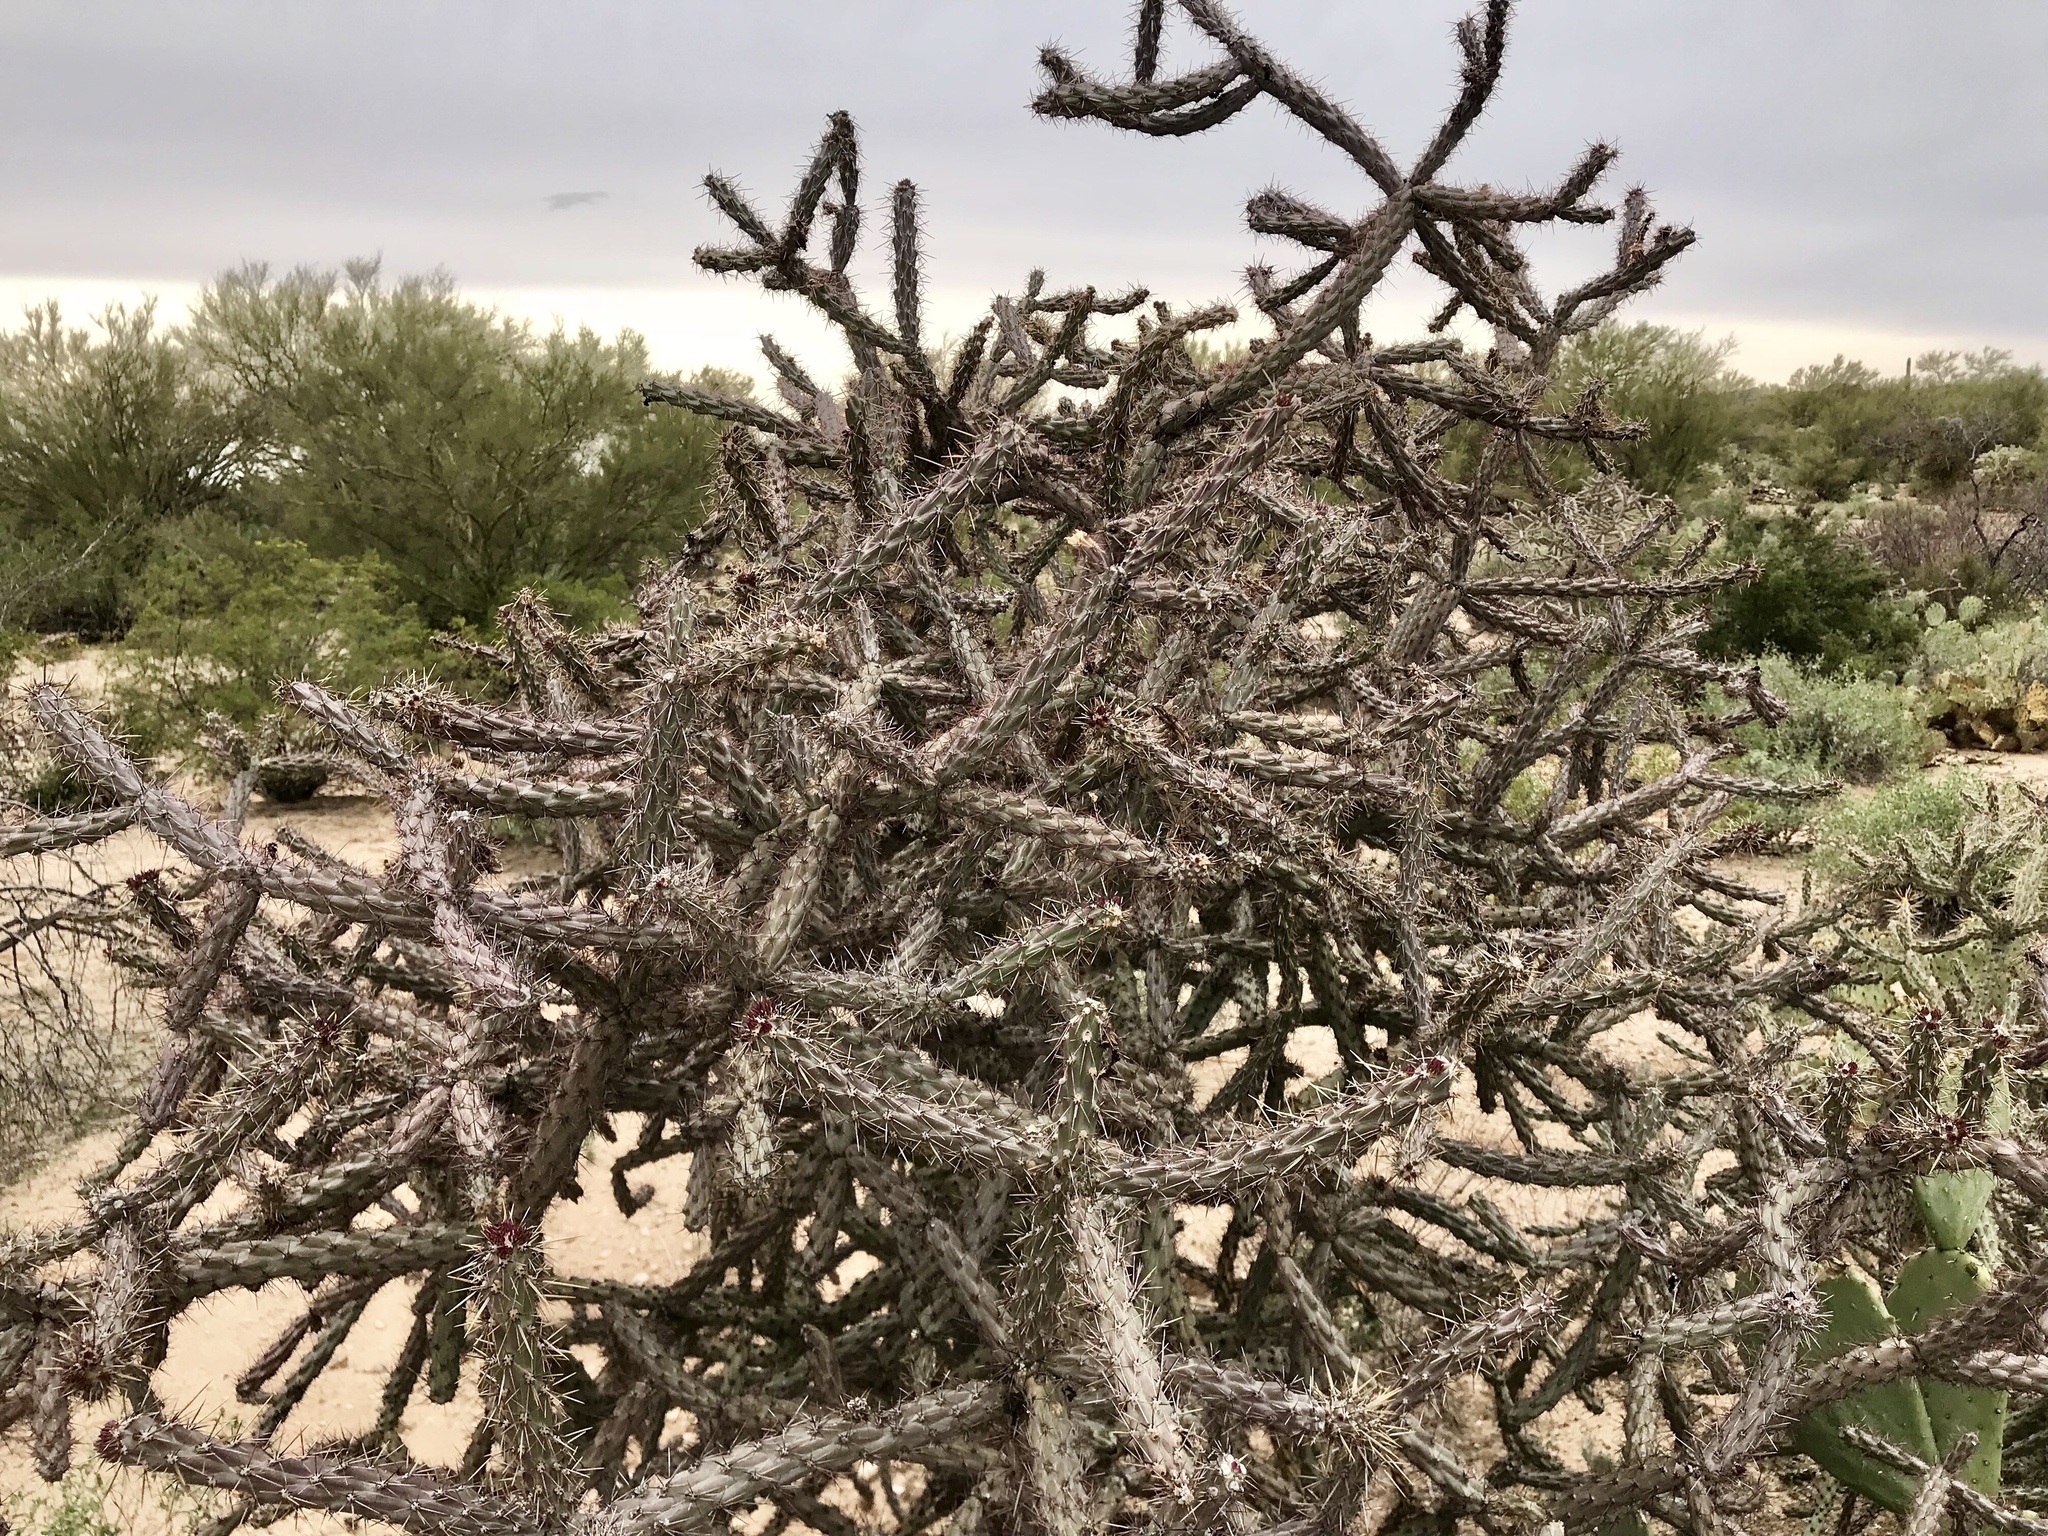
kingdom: Plantae
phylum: Tracheophyta
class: Magnoliopsida
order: Caryophyllales
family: Cactaceae
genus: Cylindropuntia
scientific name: Cylindropuntia thurberi
